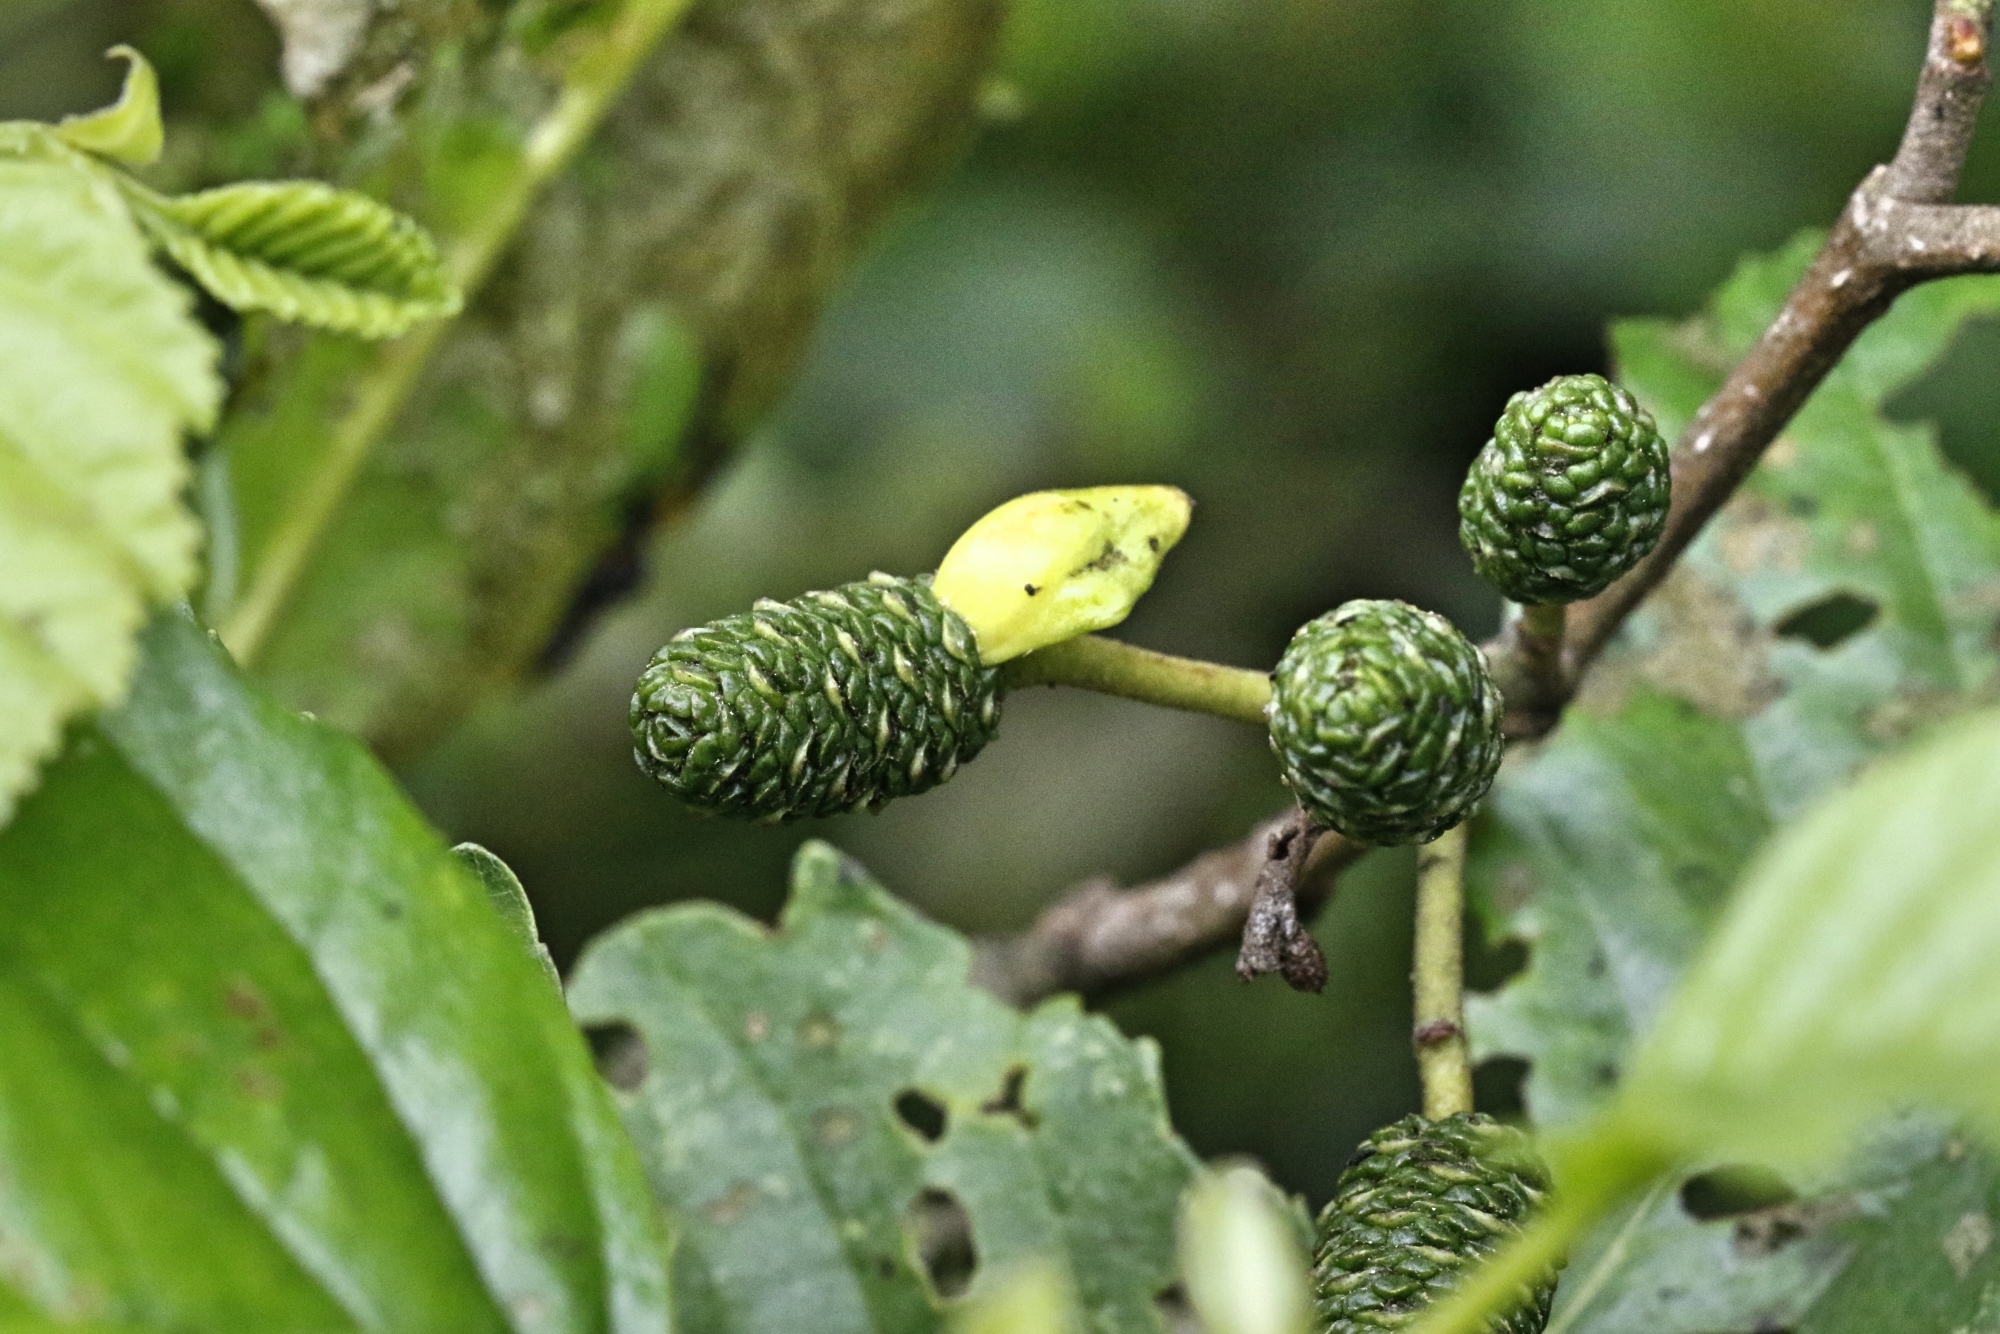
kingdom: Fungi
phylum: Ascomycota
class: Taphrinomycetes
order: Taphrinales
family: Taphrinaceae
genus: Taphrina
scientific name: Taphrina alni
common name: Alder tongue
